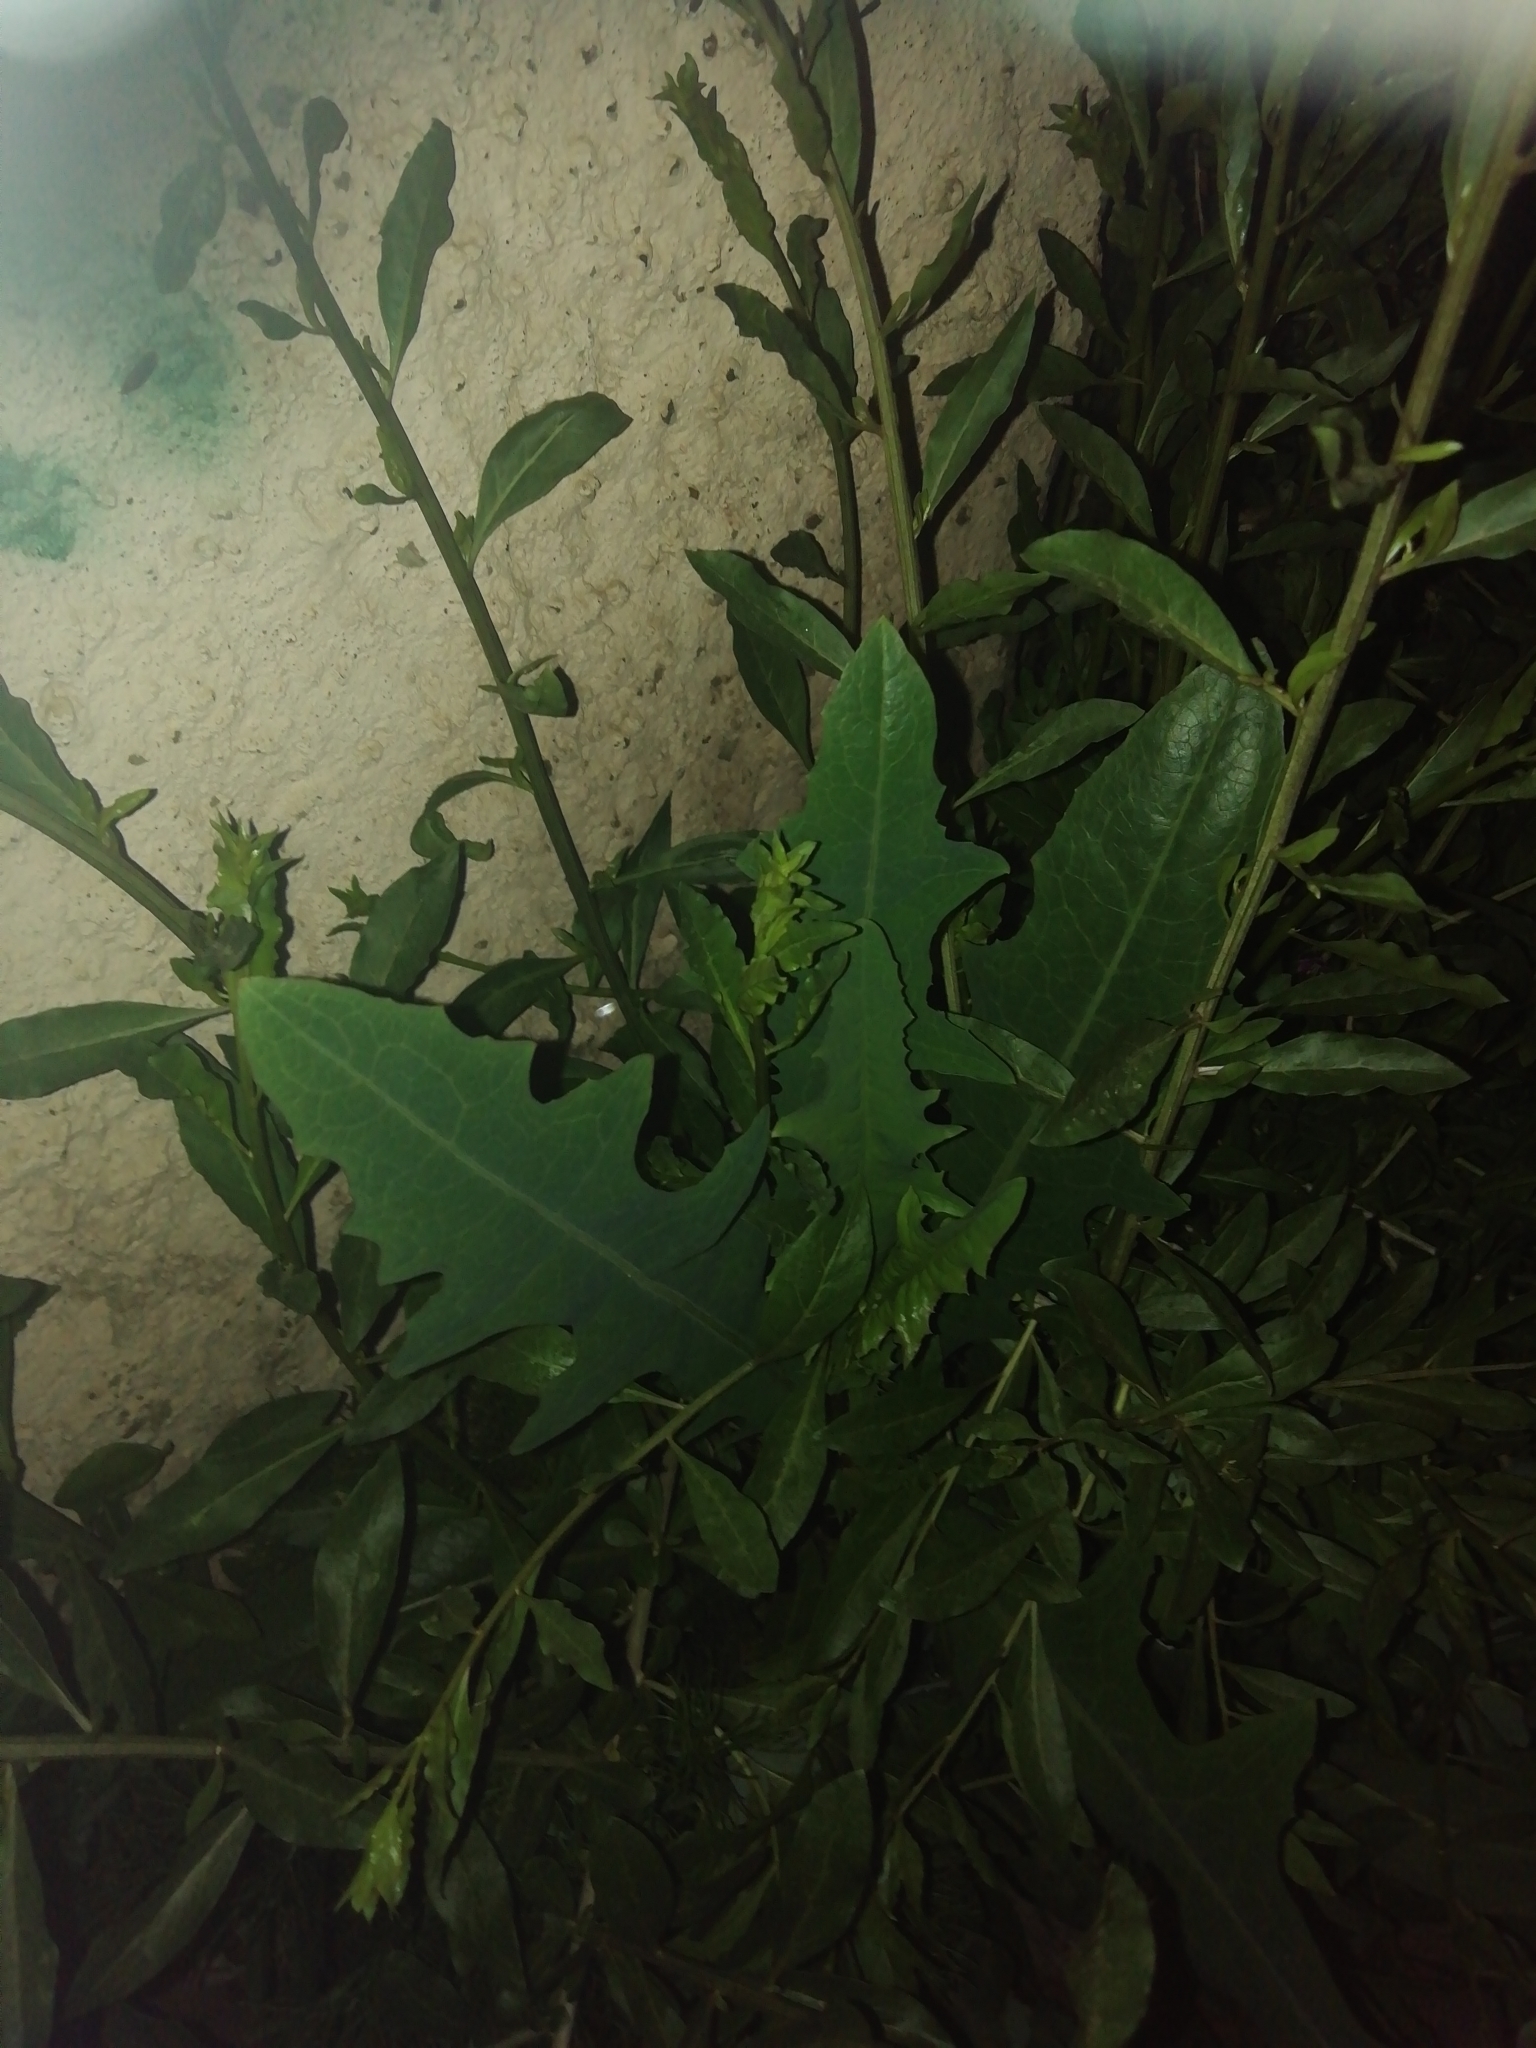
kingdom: Plantae
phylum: Tracheophyta
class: Magnoliopsida
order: Asterales
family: Asteraceae
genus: Lactuca
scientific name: Lactuca serriola
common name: Prickly lettuce
